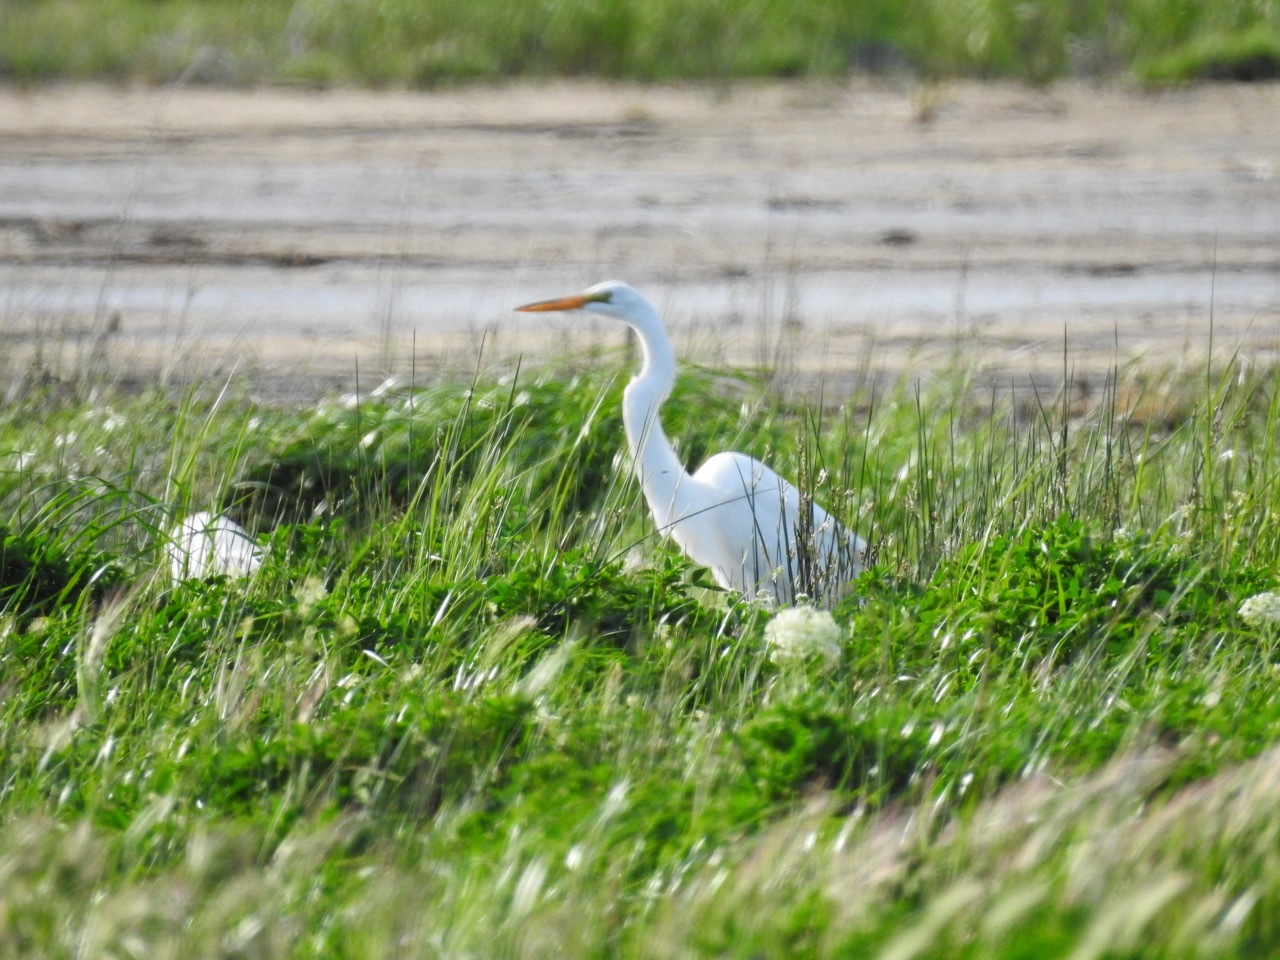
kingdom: Animalia
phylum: Chordata
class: Aves
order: Pelecaniformes
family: Ardeidae
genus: Ardea
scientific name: Ardea alba
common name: Great egret
